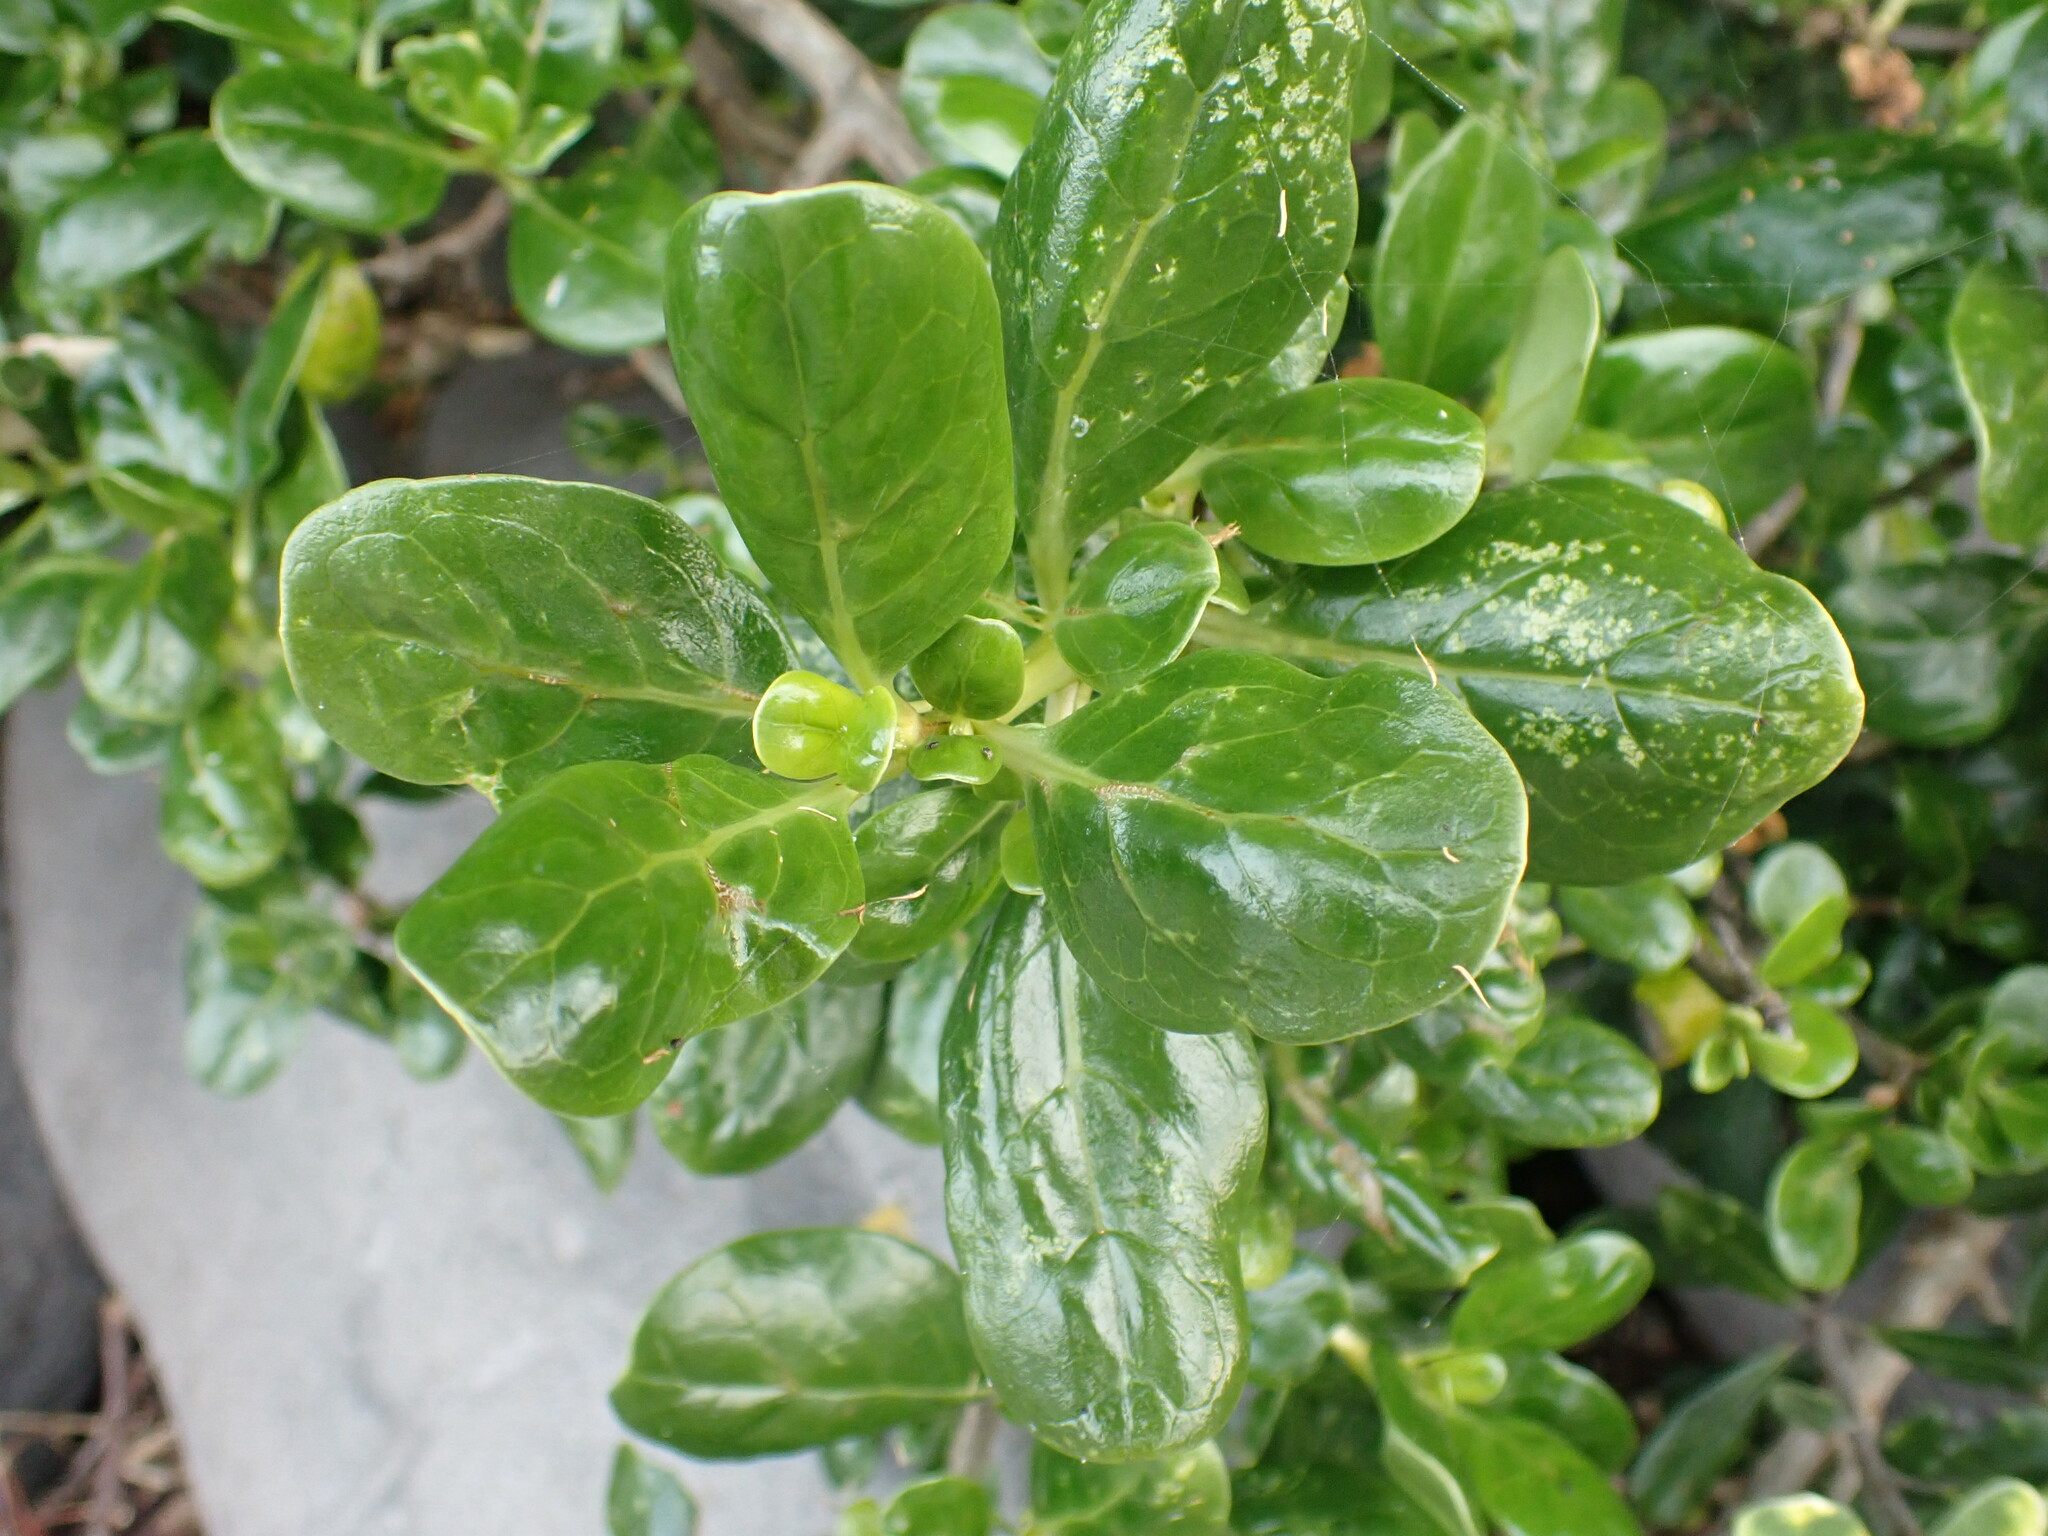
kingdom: Plantae
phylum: Tracheophyta
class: Magnoliopsida
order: Gentianales
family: Rubiaceae
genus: Coprosma
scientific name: Coprosma repens
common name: Tree bedstraw
